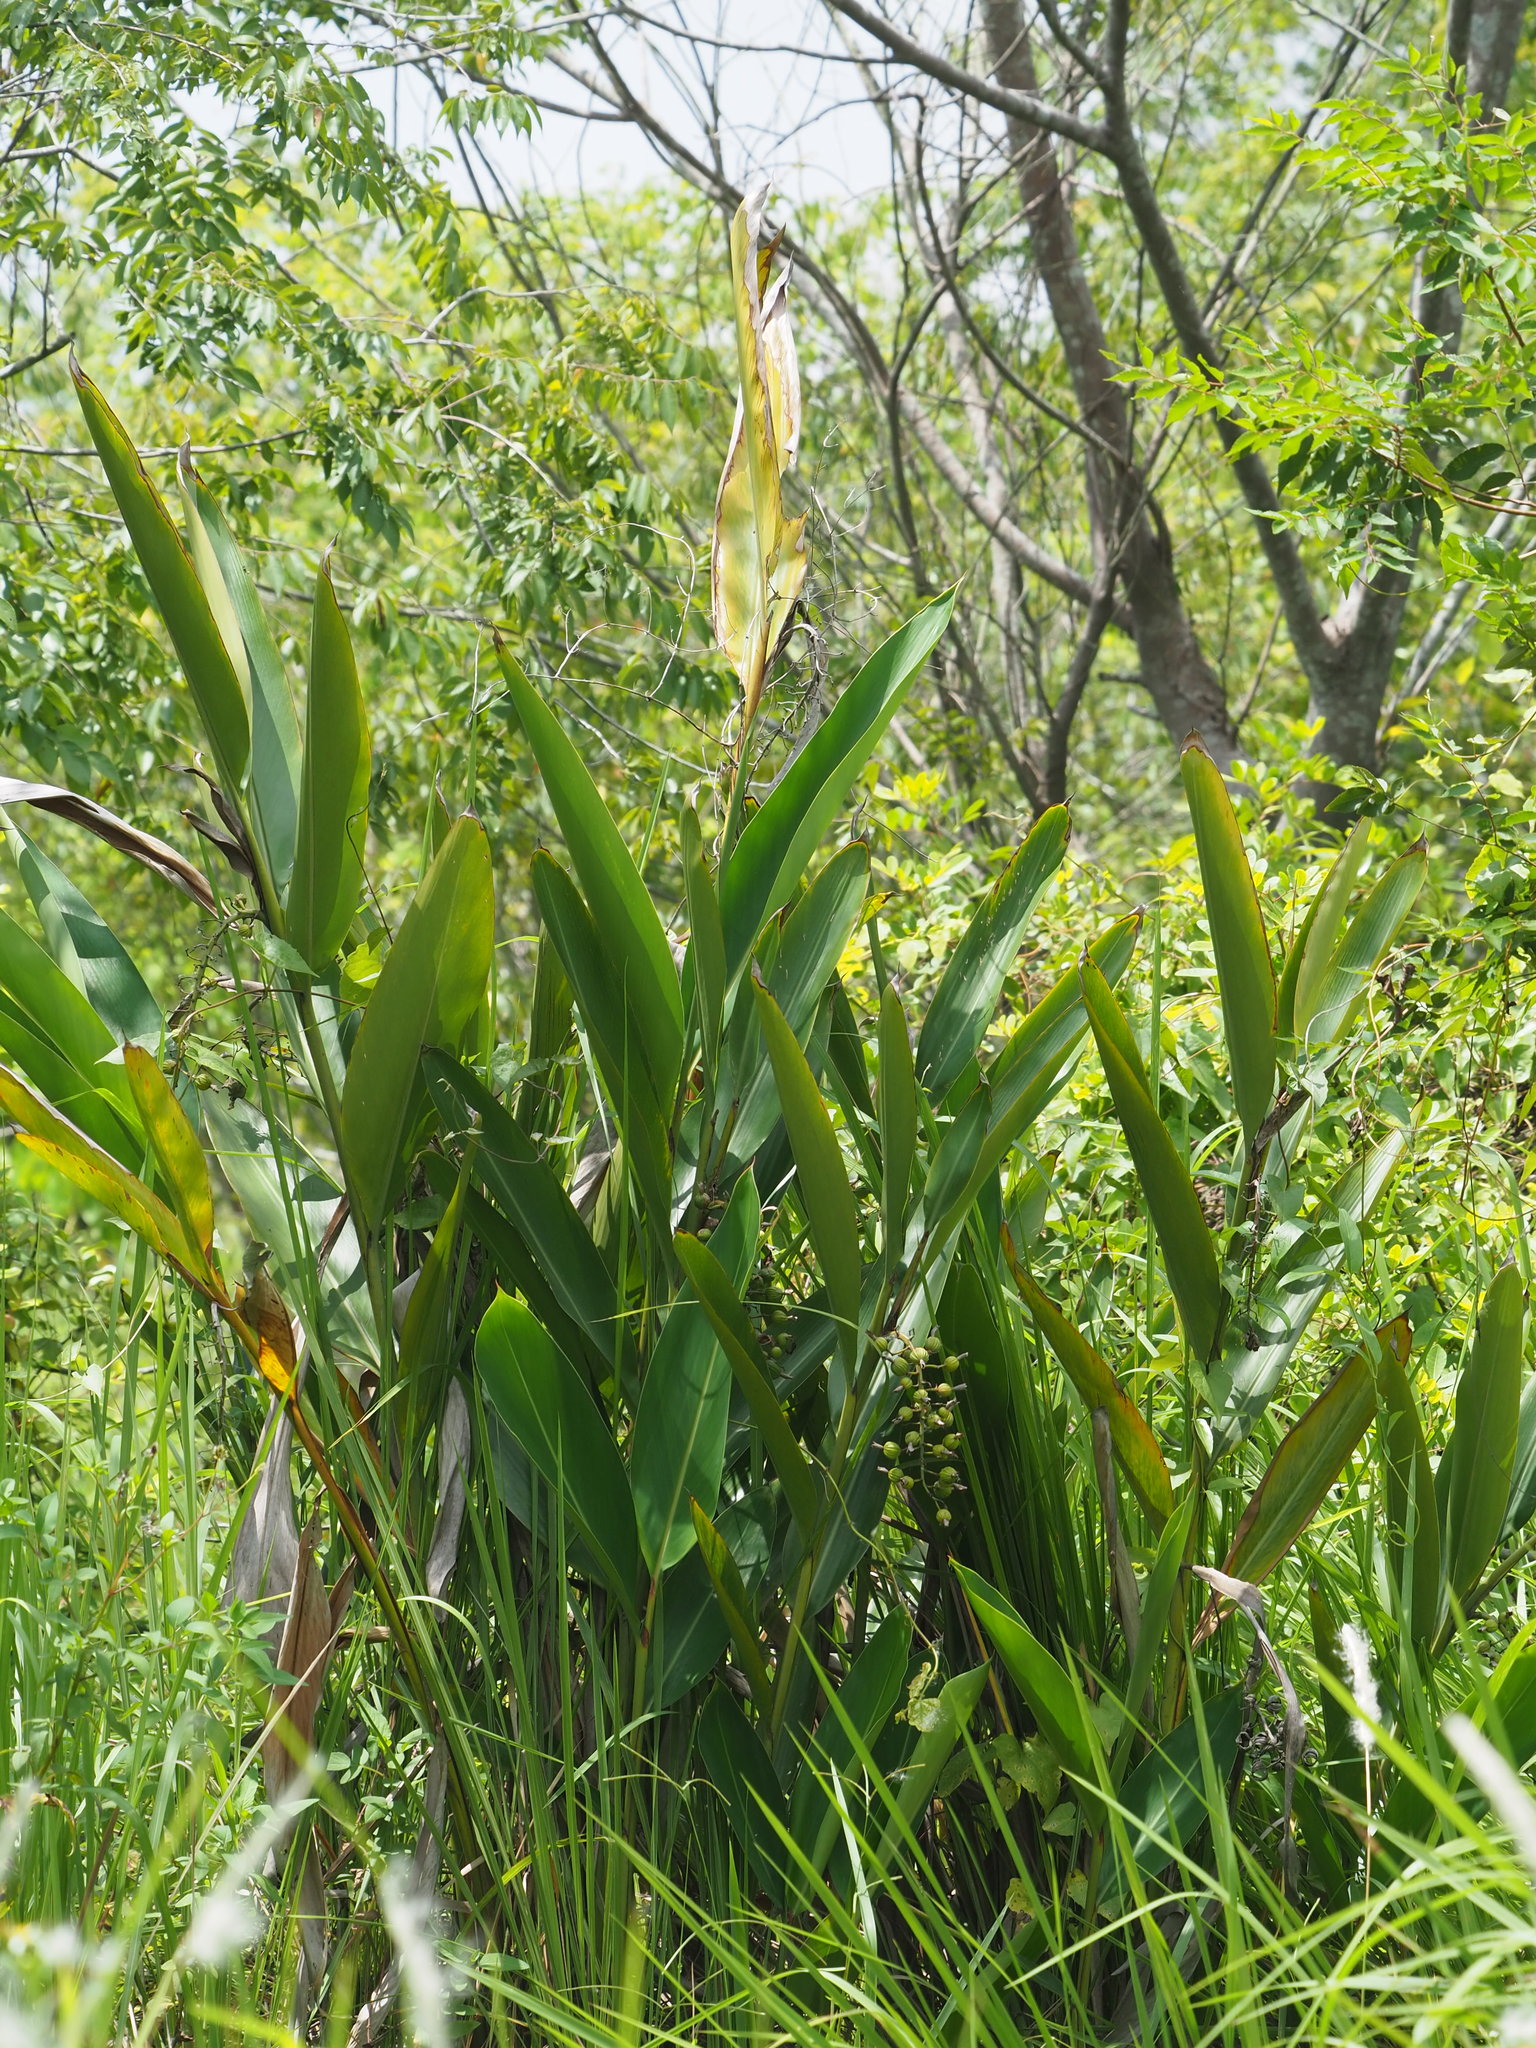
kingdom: Plantae
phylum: Tracheophyta
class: Liliopsida
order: Zingiberales
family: Zingiberaceae
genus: Alpinia
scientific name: Alpinia zerumbet
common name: Shellplant
